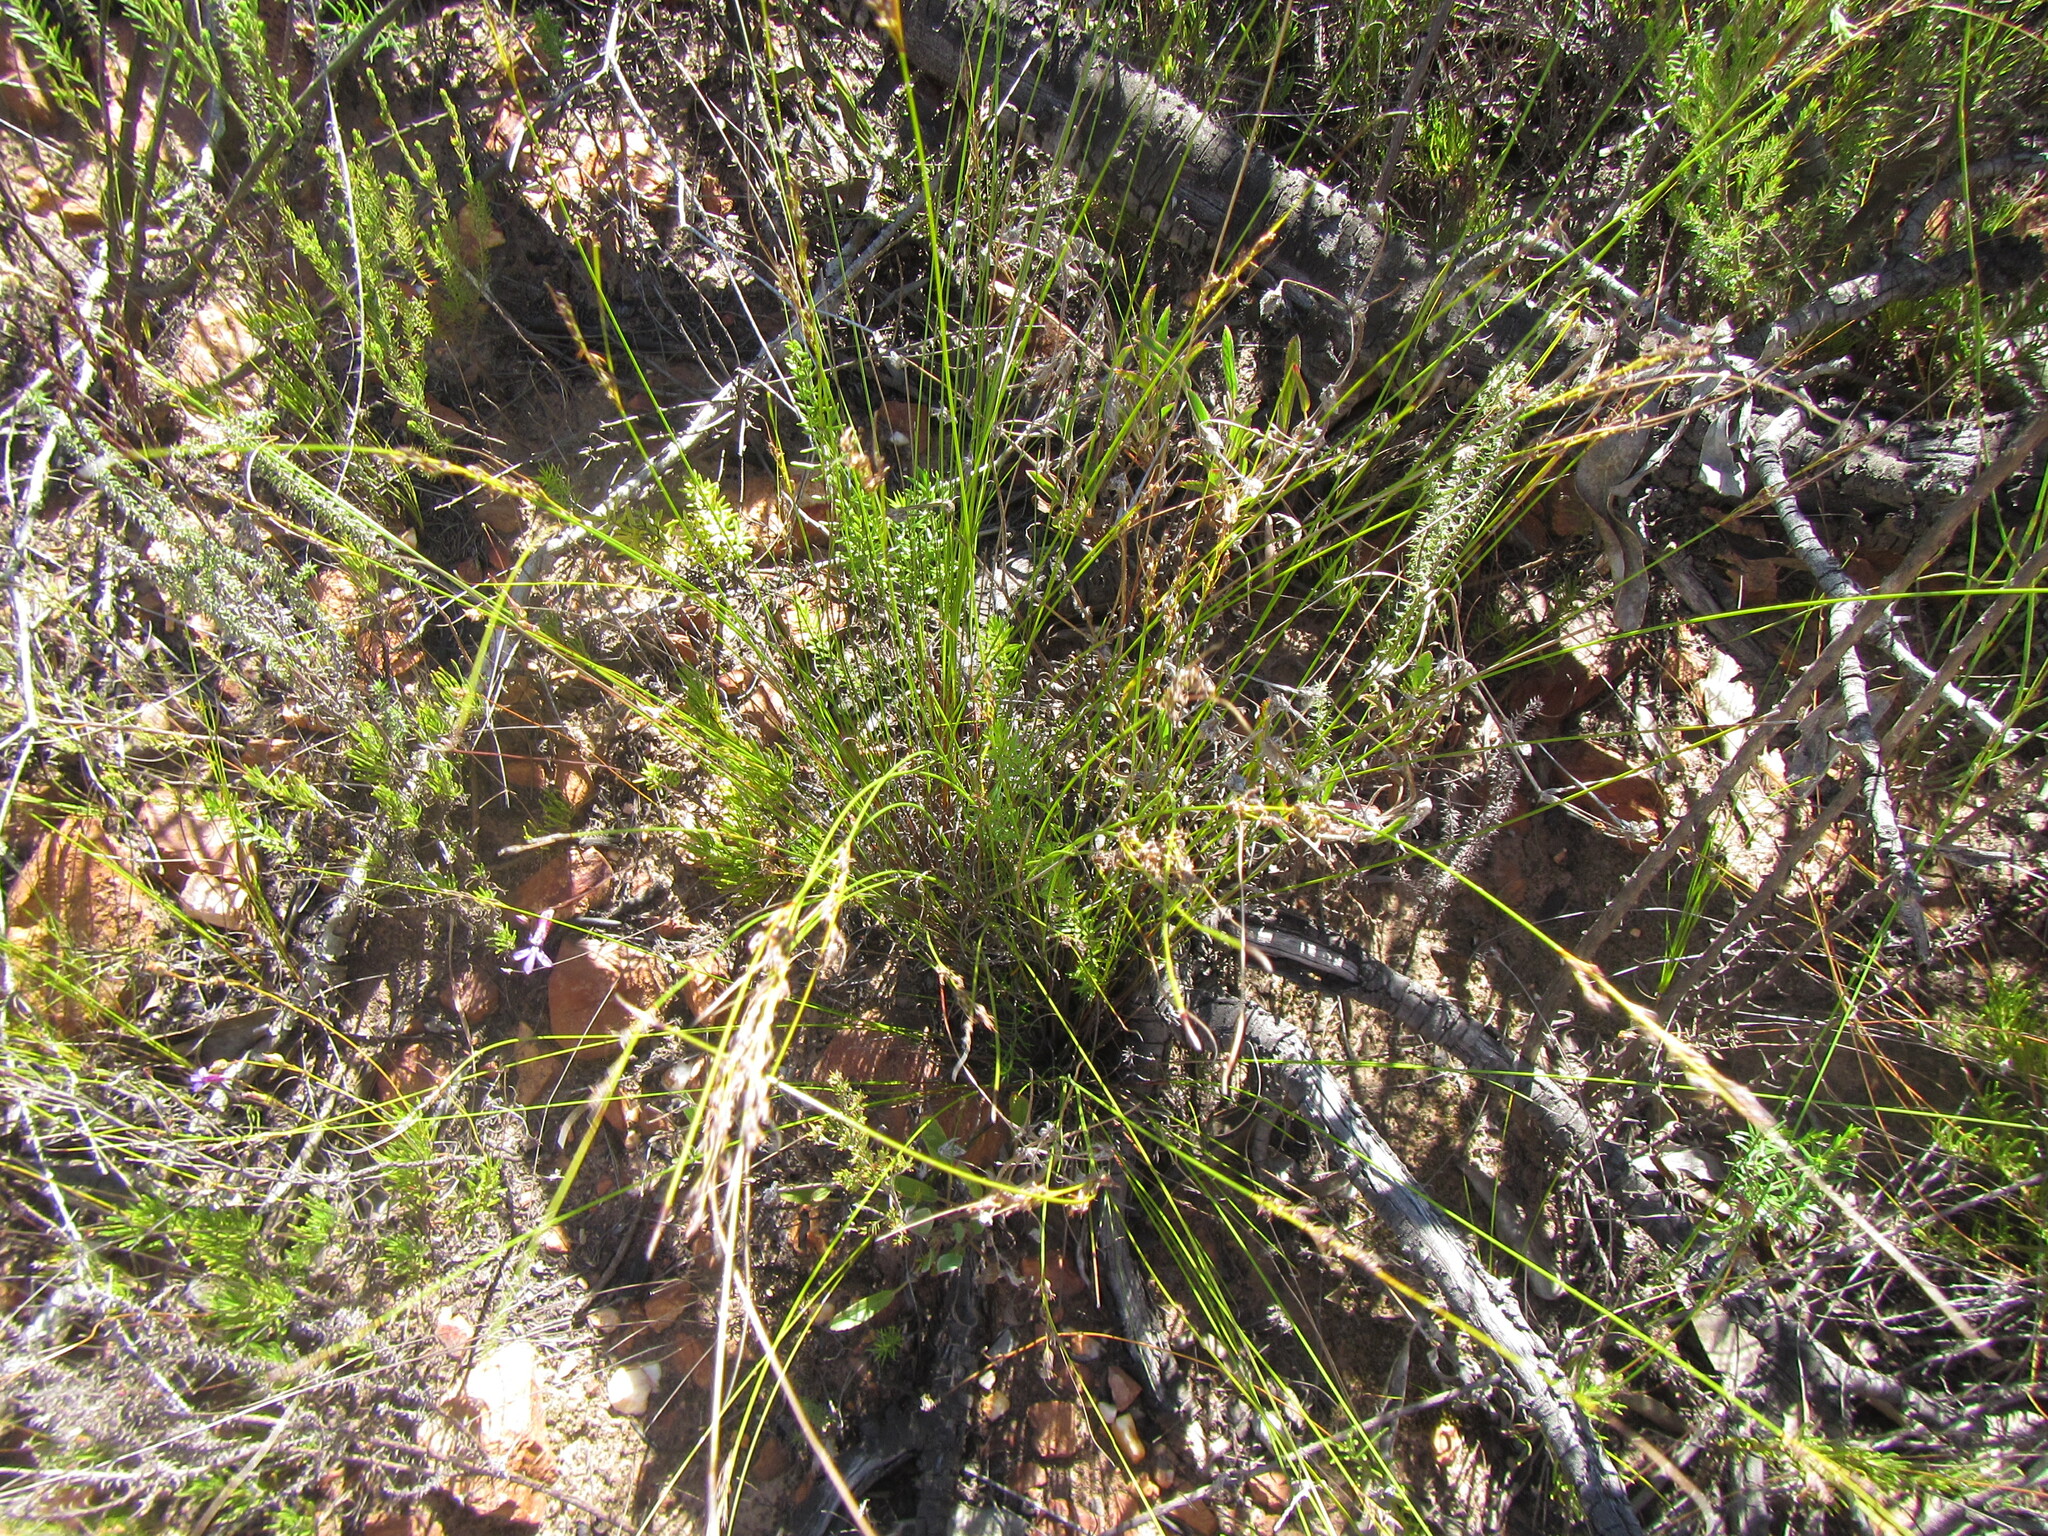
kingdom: Plantae
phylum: Tracheophyta
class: Liliopsida
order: Poales
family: Cyperaceae
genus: Schoenus
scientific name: Schoenus submarginalis
